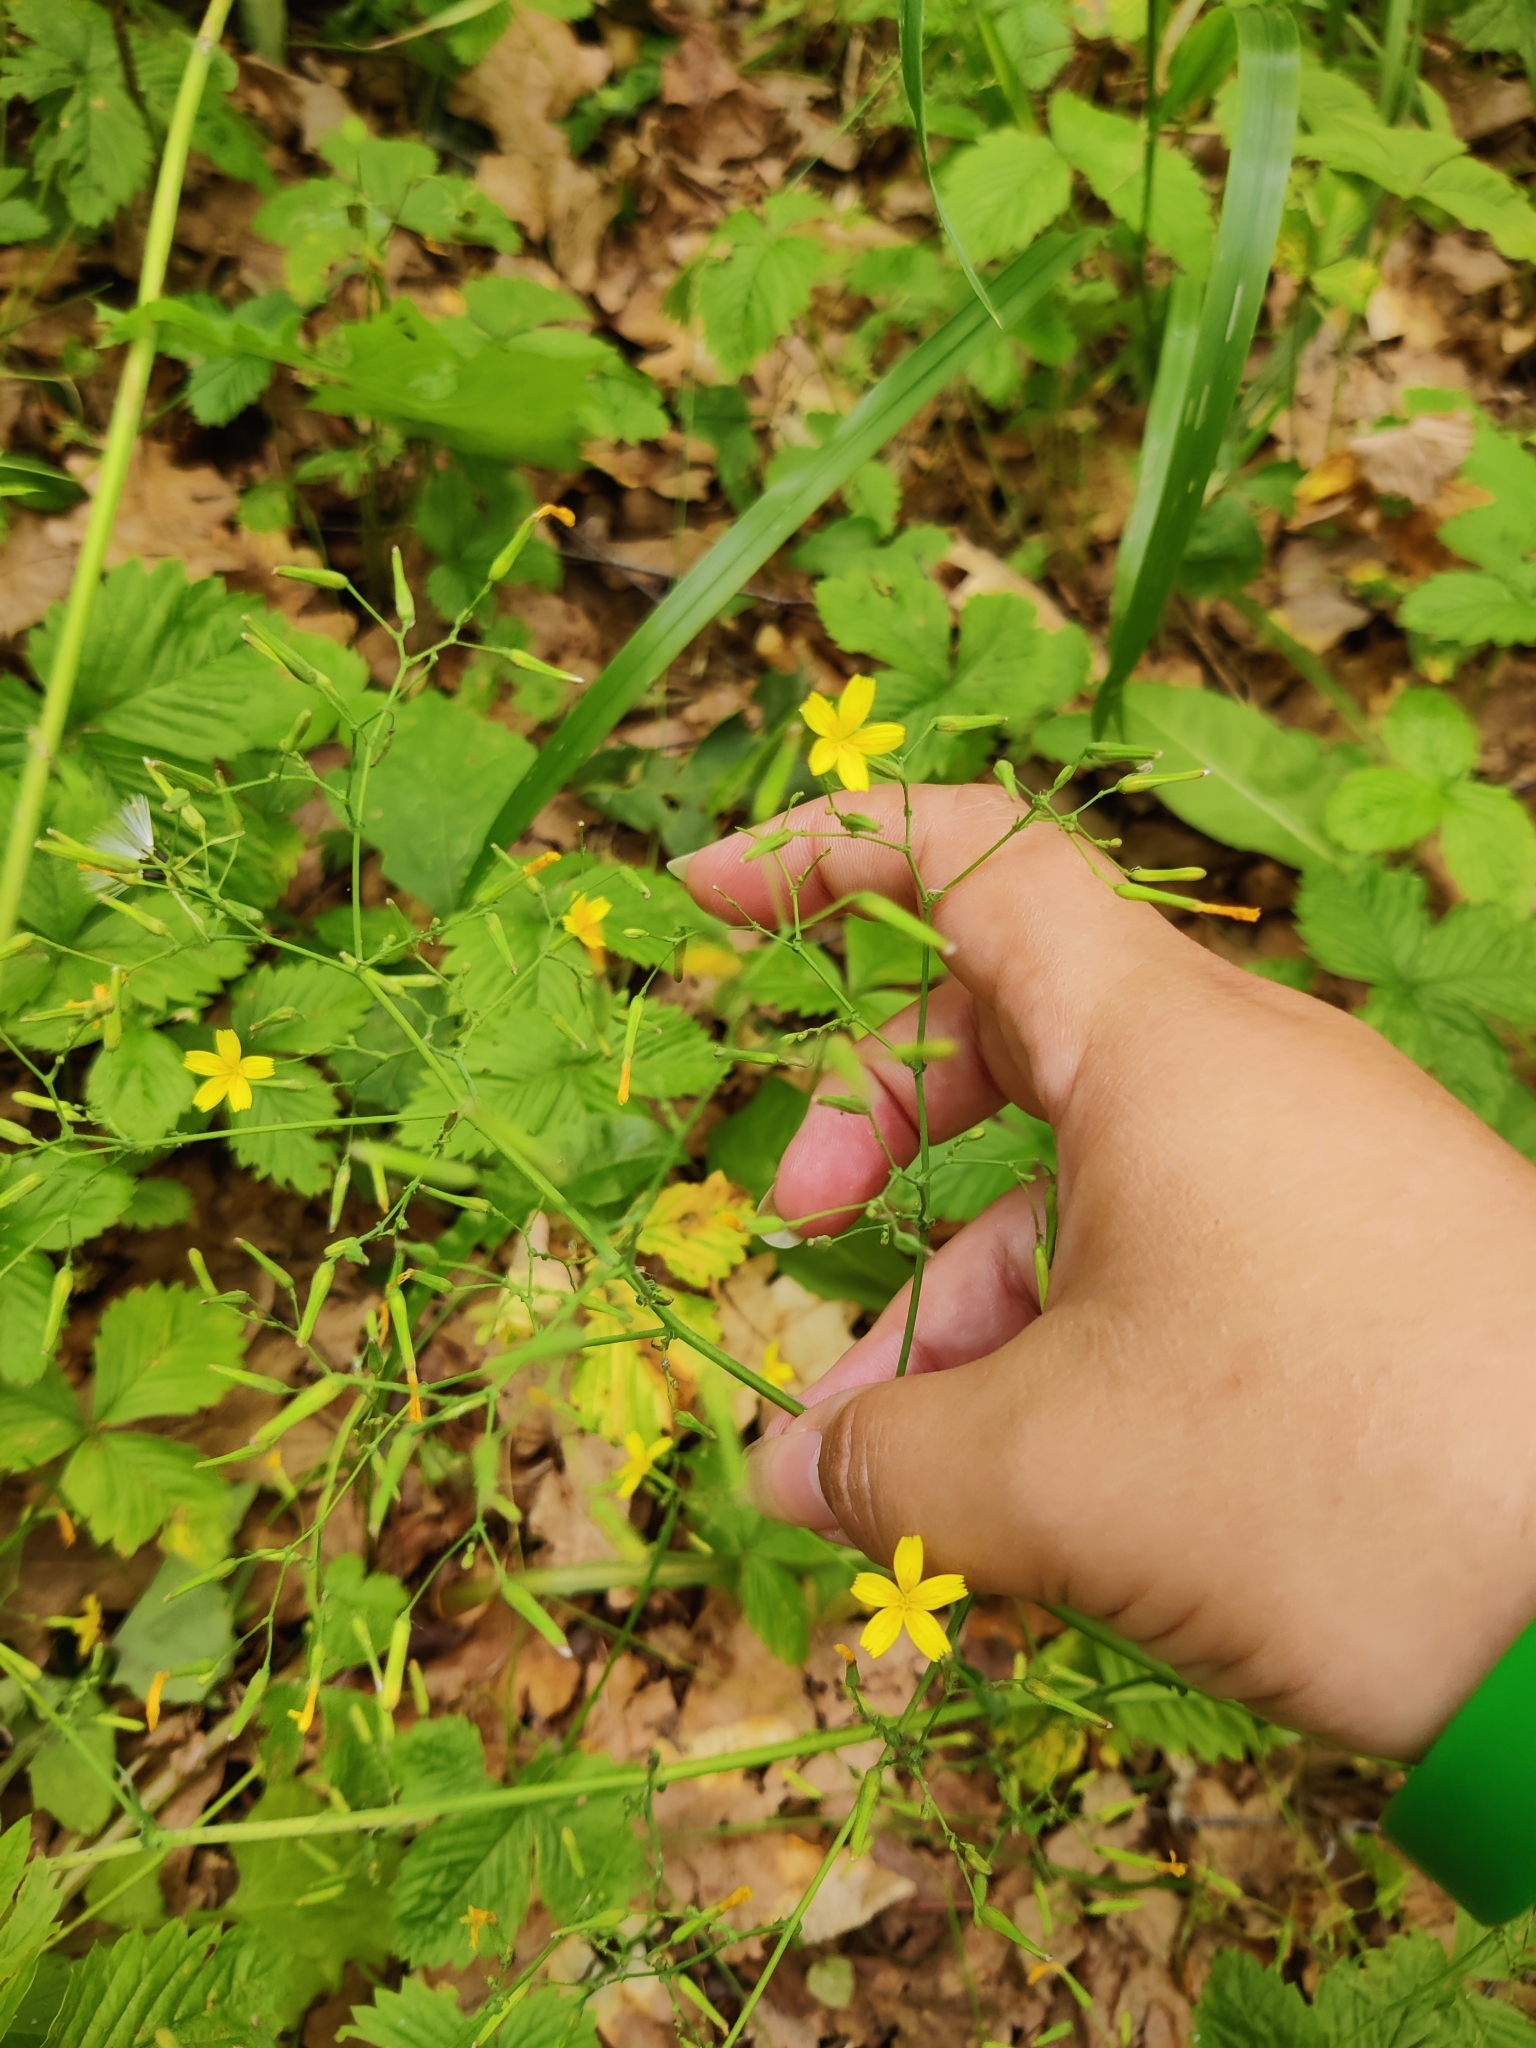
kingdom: Plantae
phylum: Tracheophyta
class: Magnoliopsida
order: Asterales
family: Asteraceae
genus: Mycelis
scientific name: Mycelis muralis
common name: Wall lettuce
